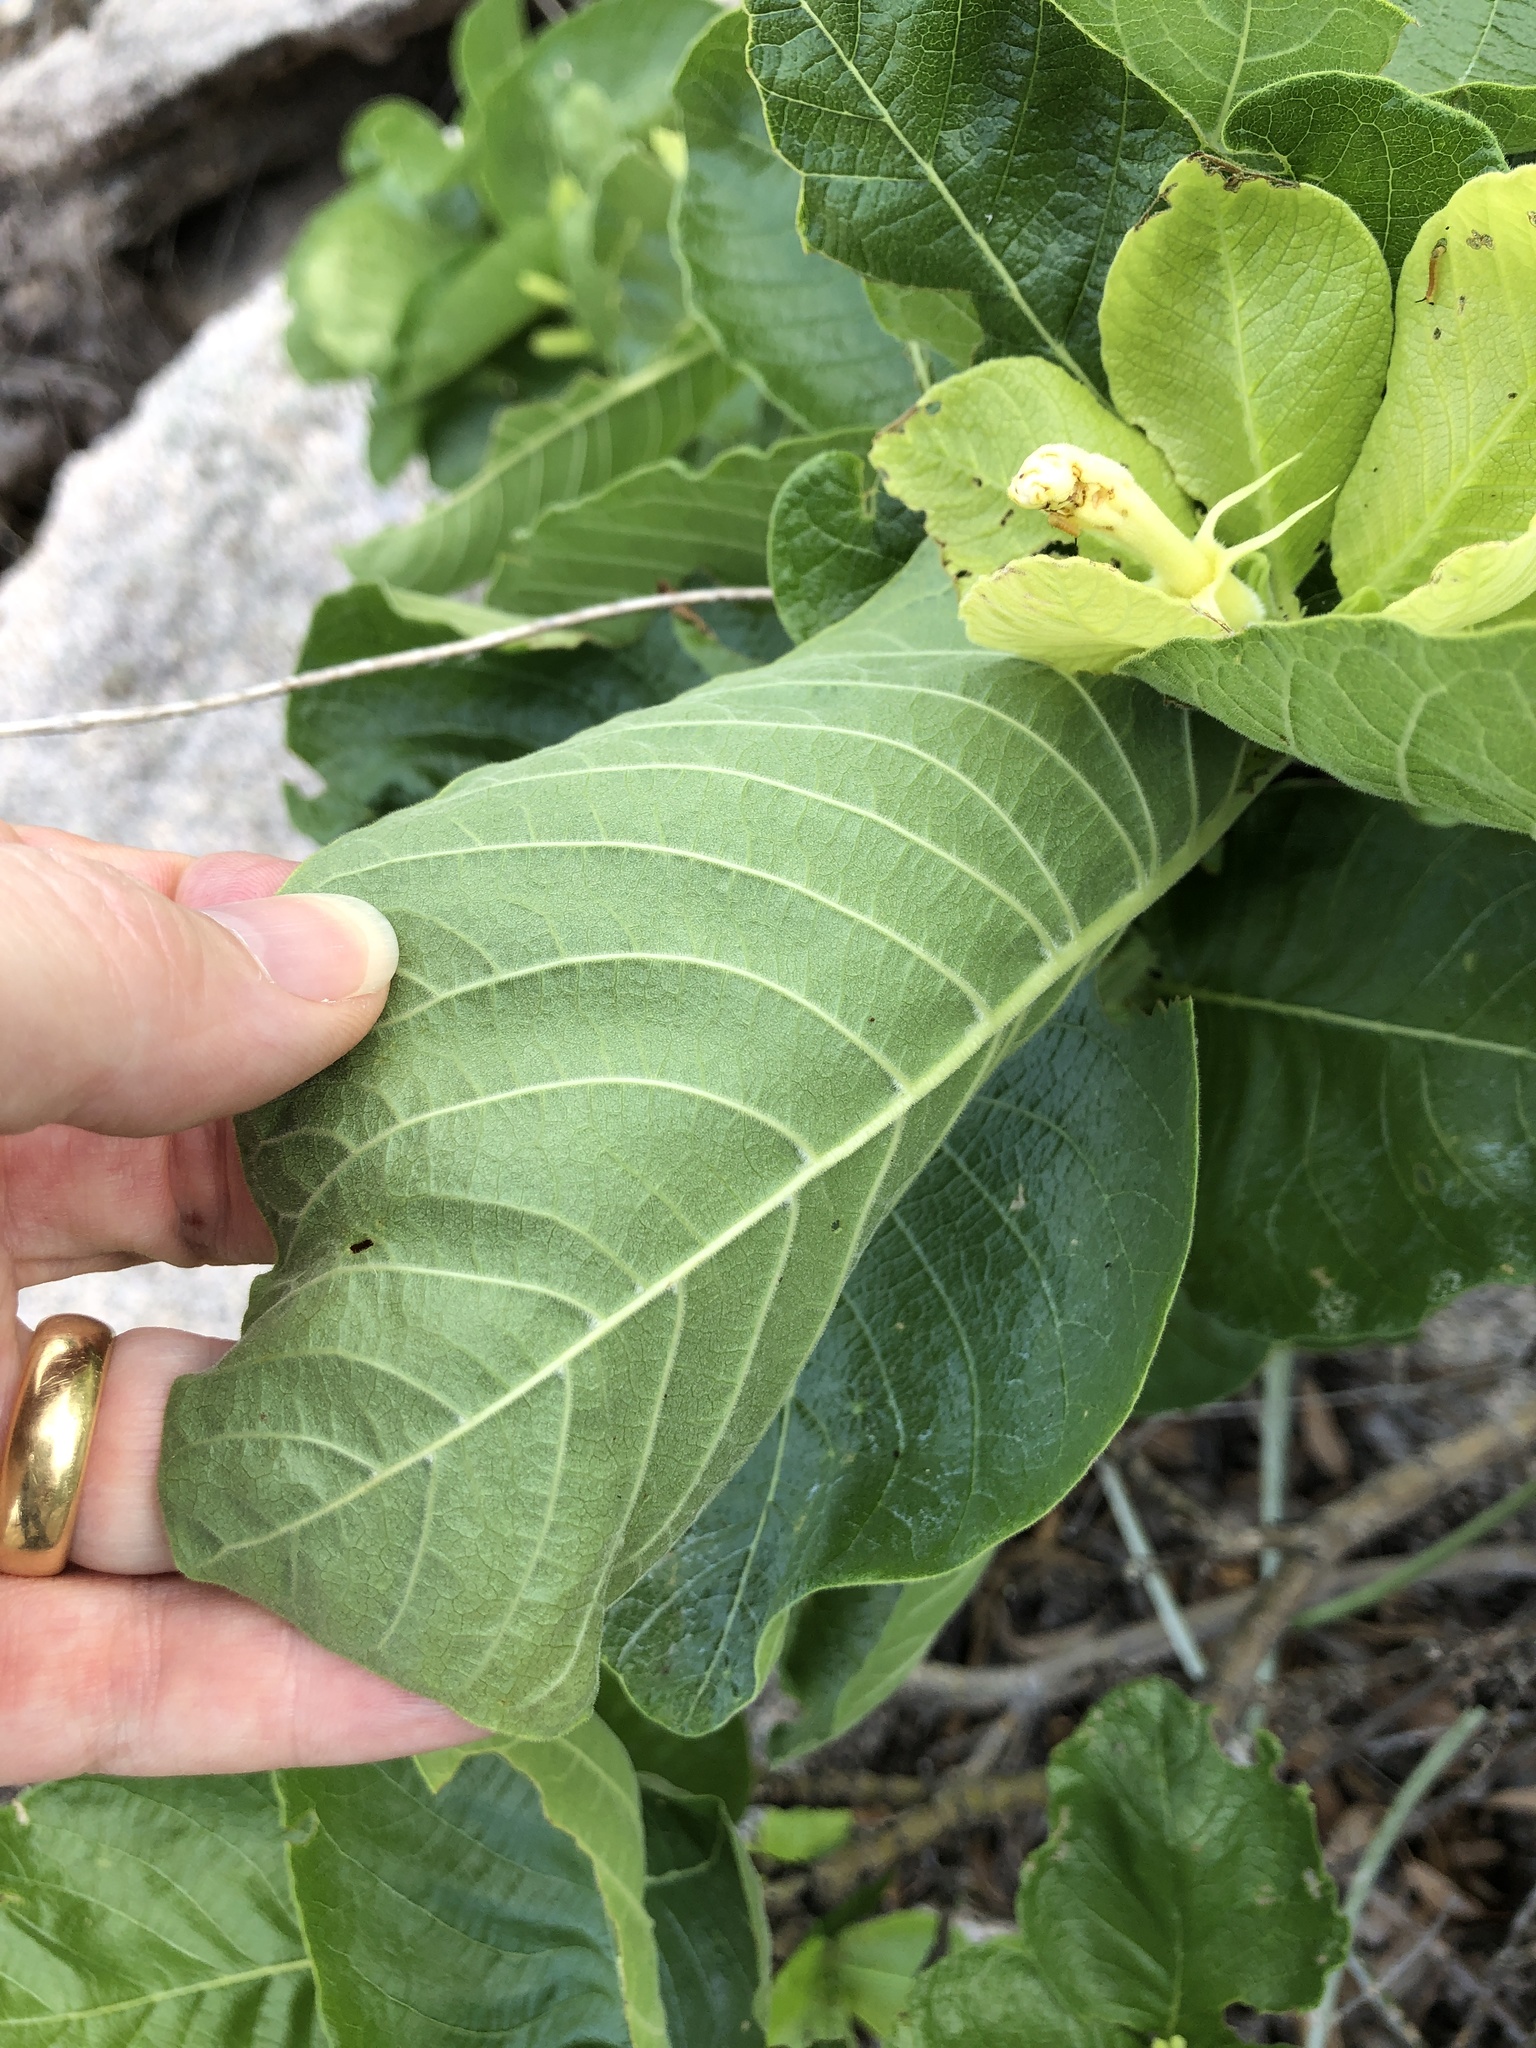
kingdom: Plantae
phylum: Tracheophyta
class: Magnoliopsida
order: Gentianales
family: Rubiaceae
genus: Larsenaikia
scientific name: Larsenaikia ochreata
